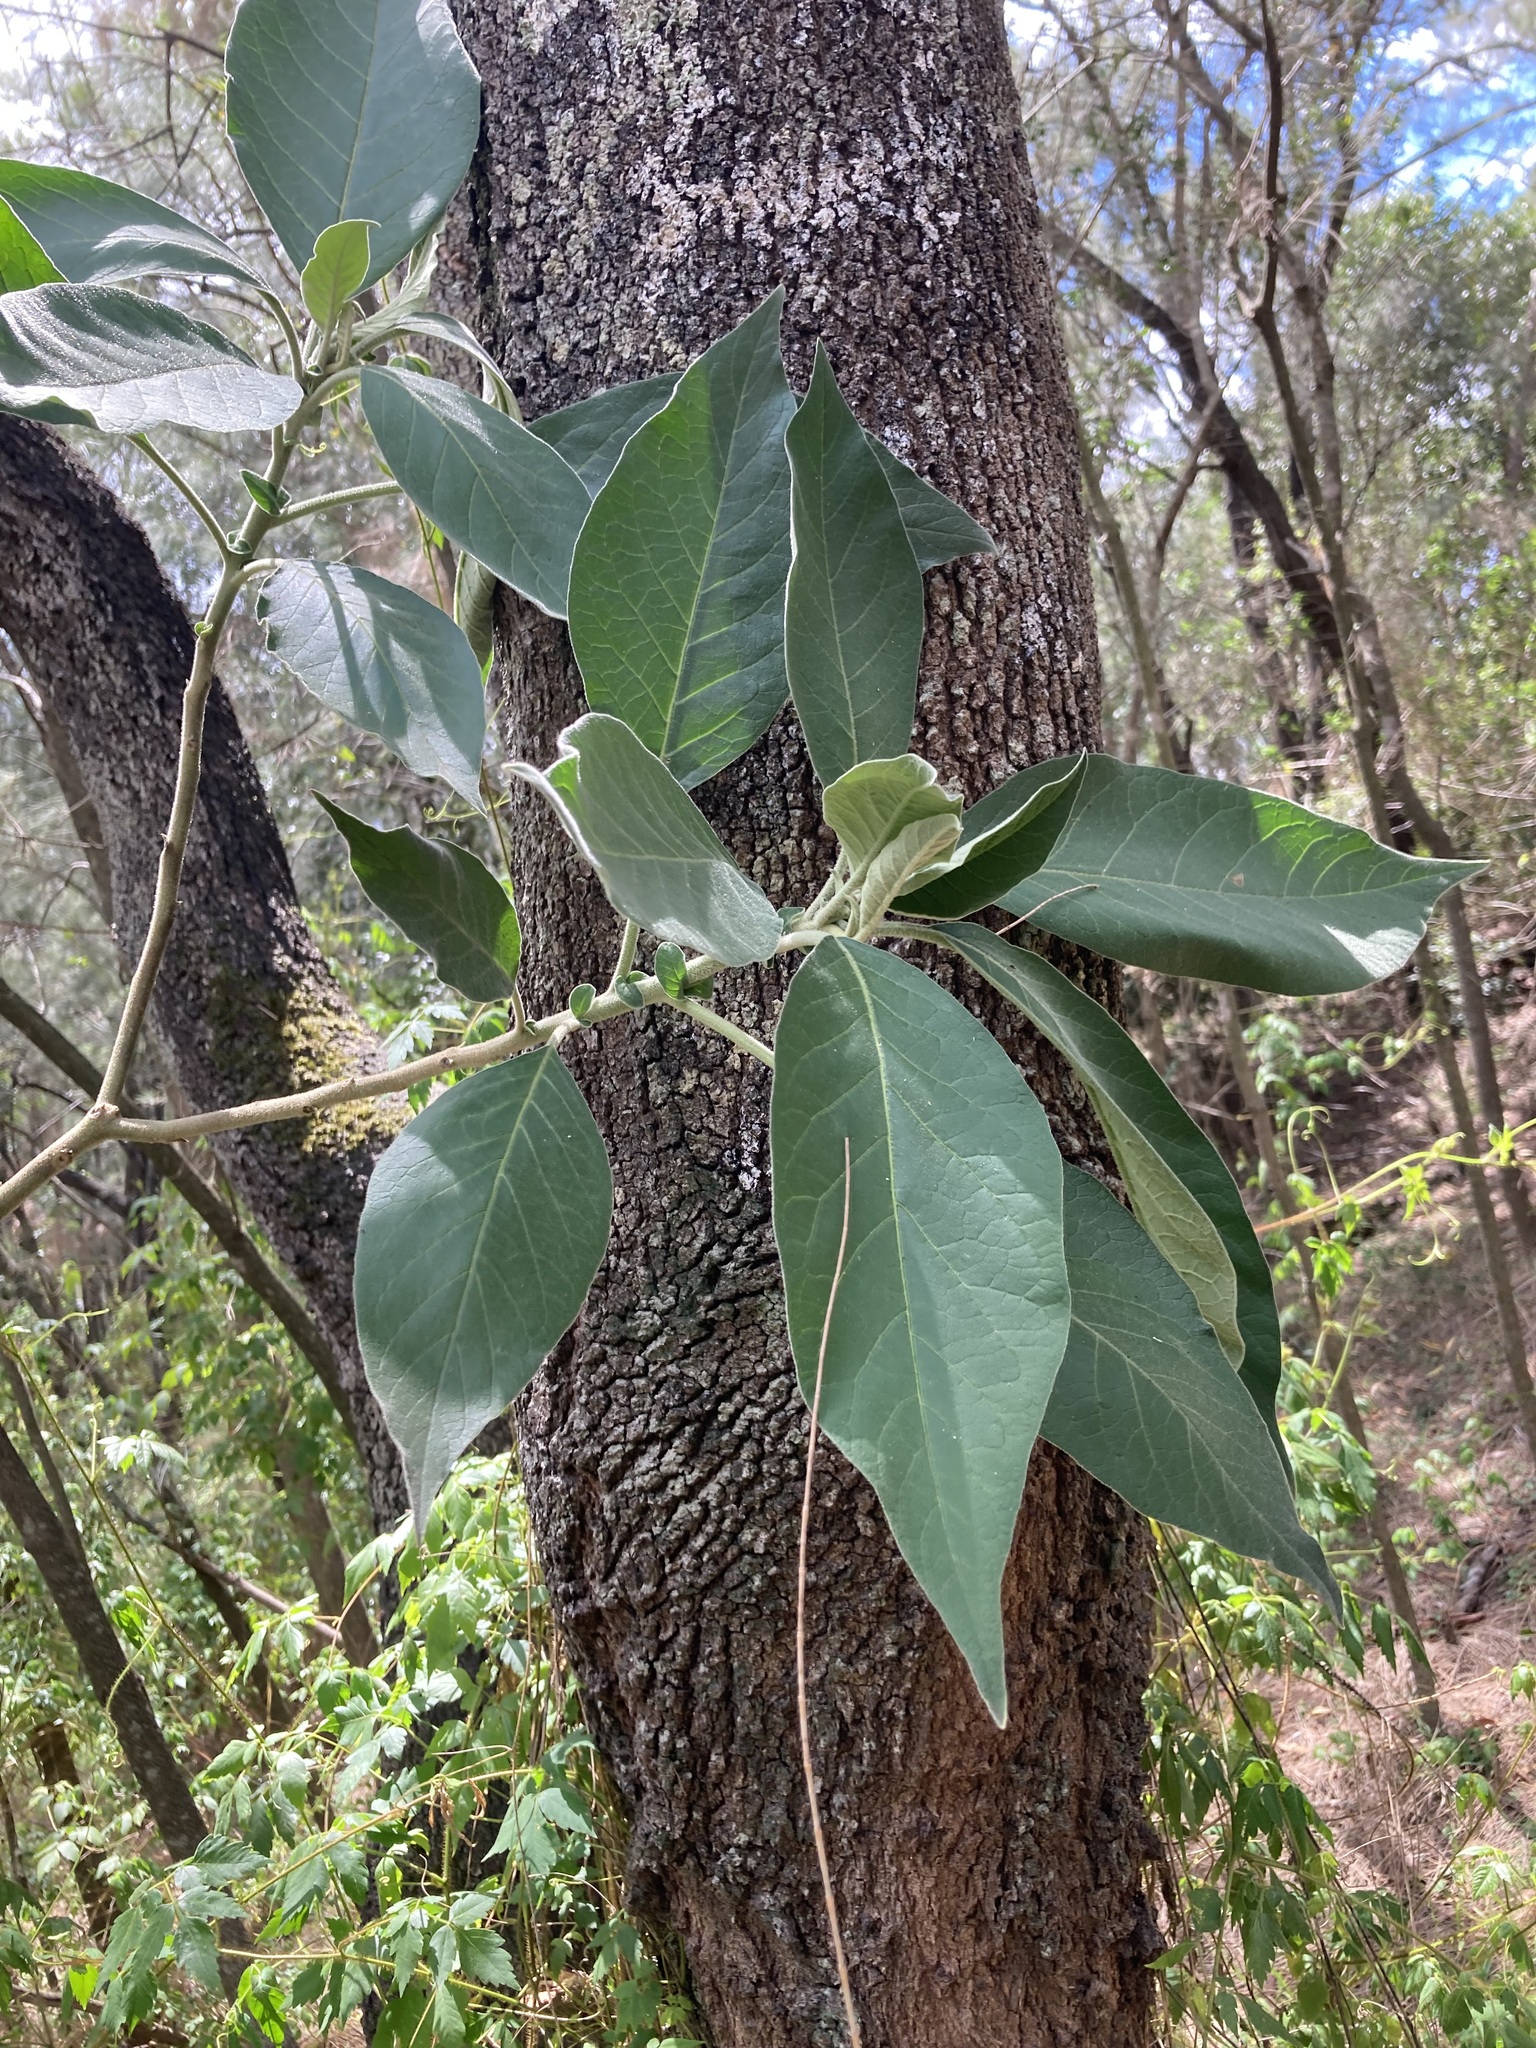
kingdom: Plantae
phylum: Tracheophyta
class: Magnoliopsida
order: Solanales
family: Solanaceae
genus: Solanum
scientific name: Solanum mauritianum
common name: Earleaf nightshade
